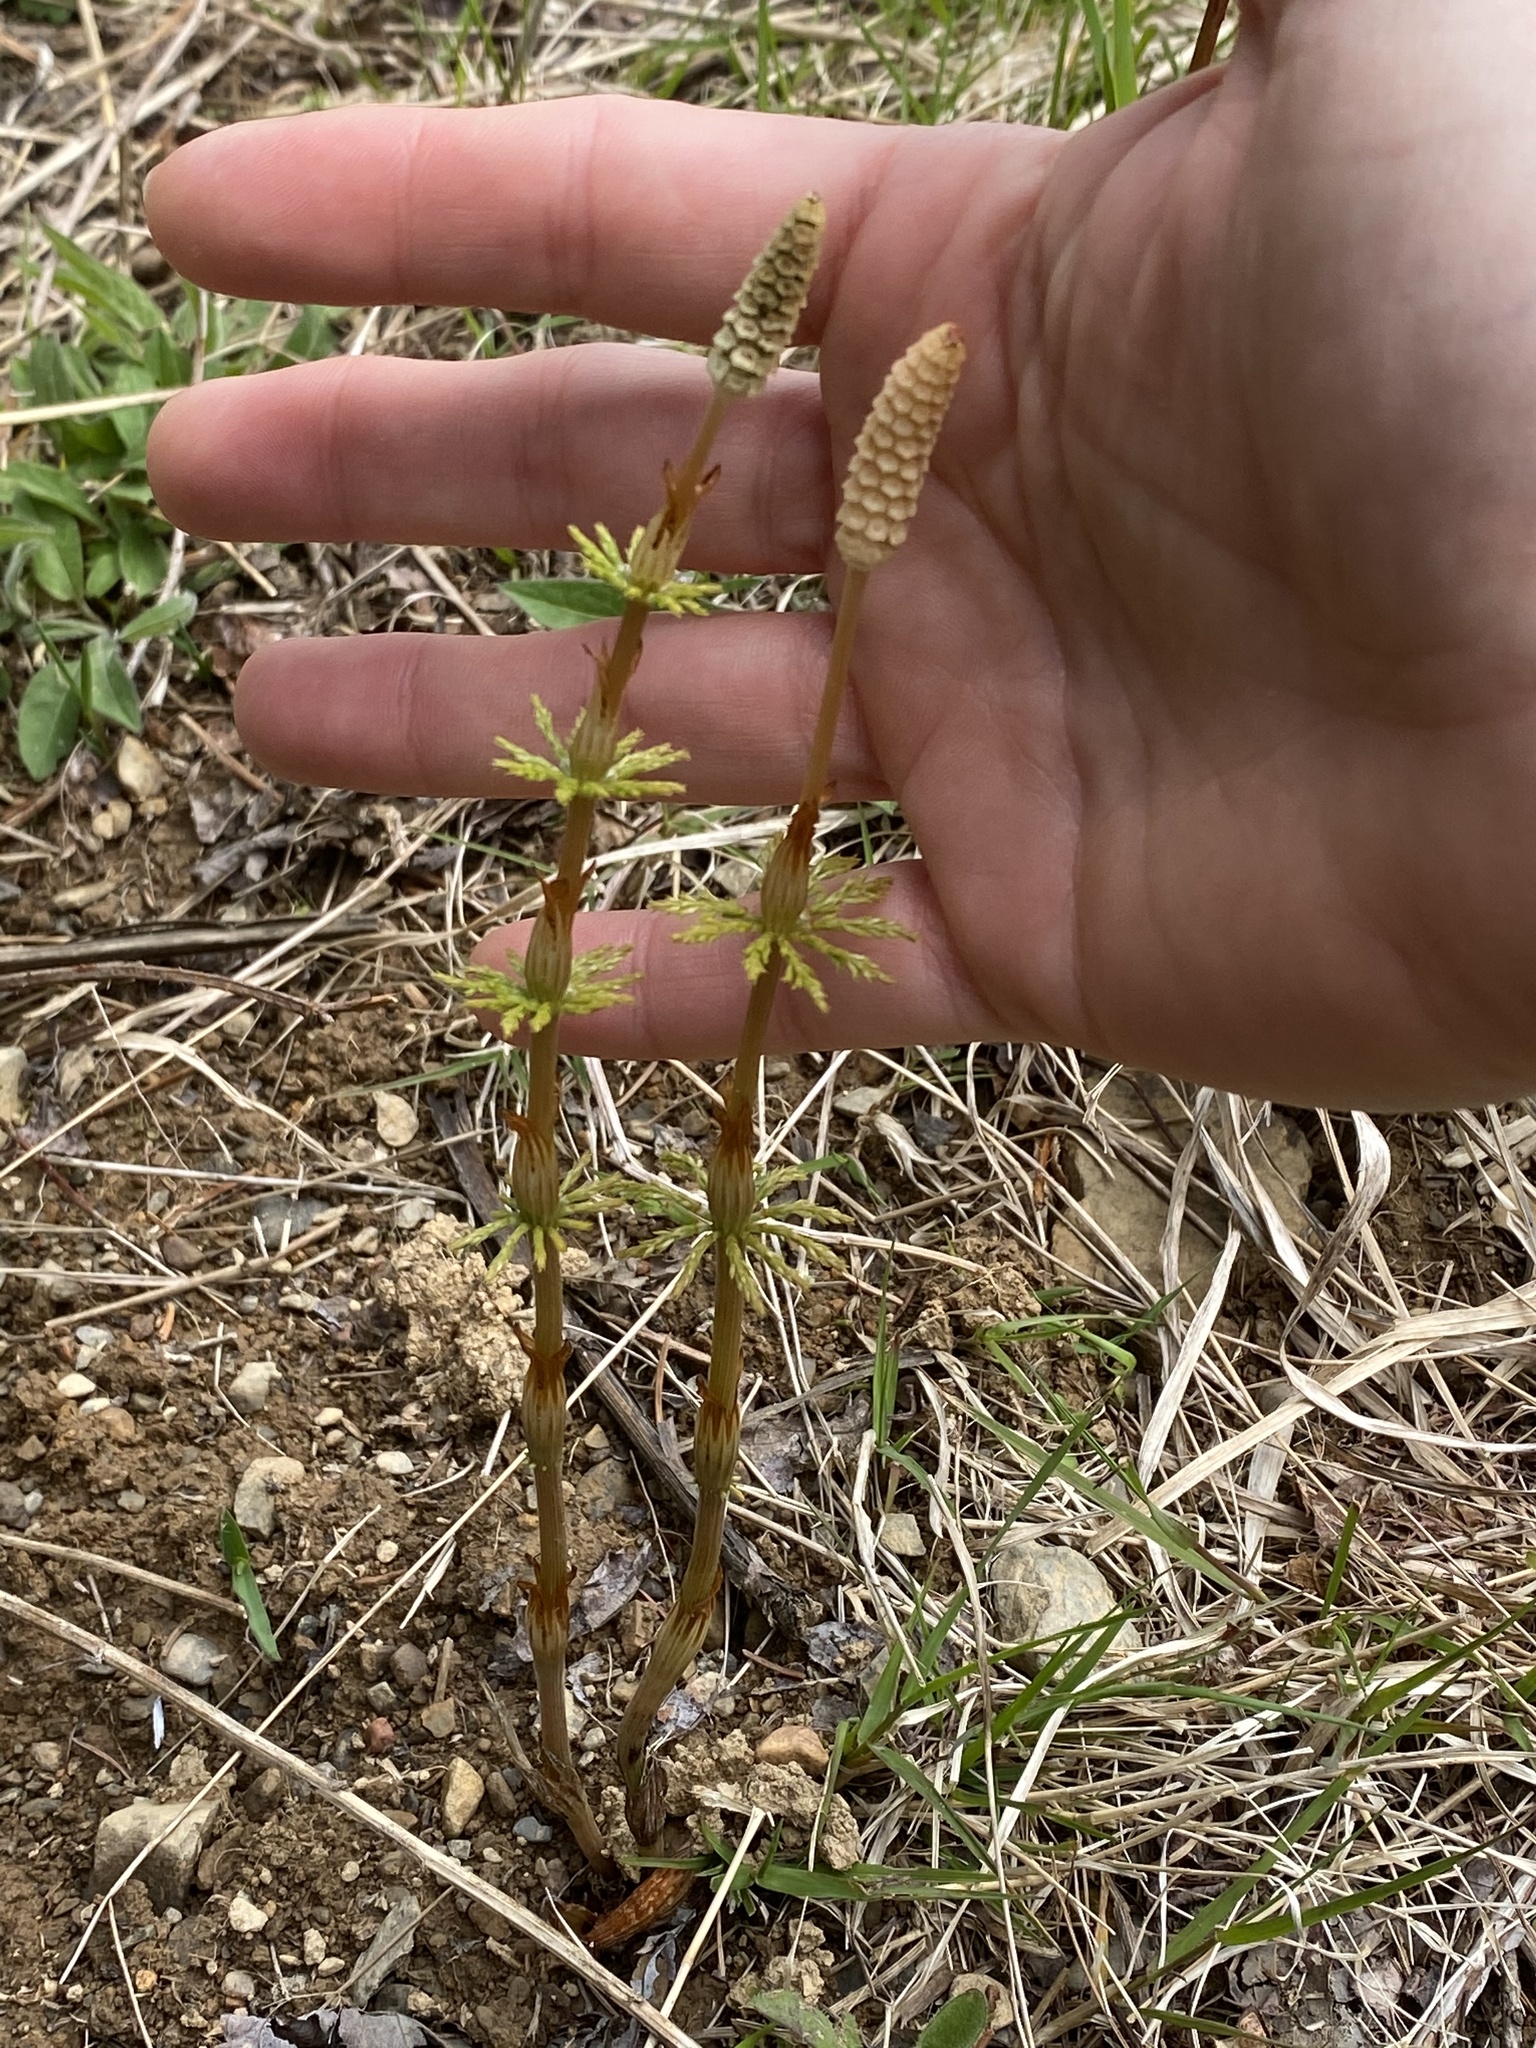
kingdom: Plantae
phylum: Tracheophyta
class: Polypodiopsida
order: Equisetales
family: Equisetaceae
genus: Equisetum
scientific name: Equisetum sylvaticum
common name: Wood horsetail
